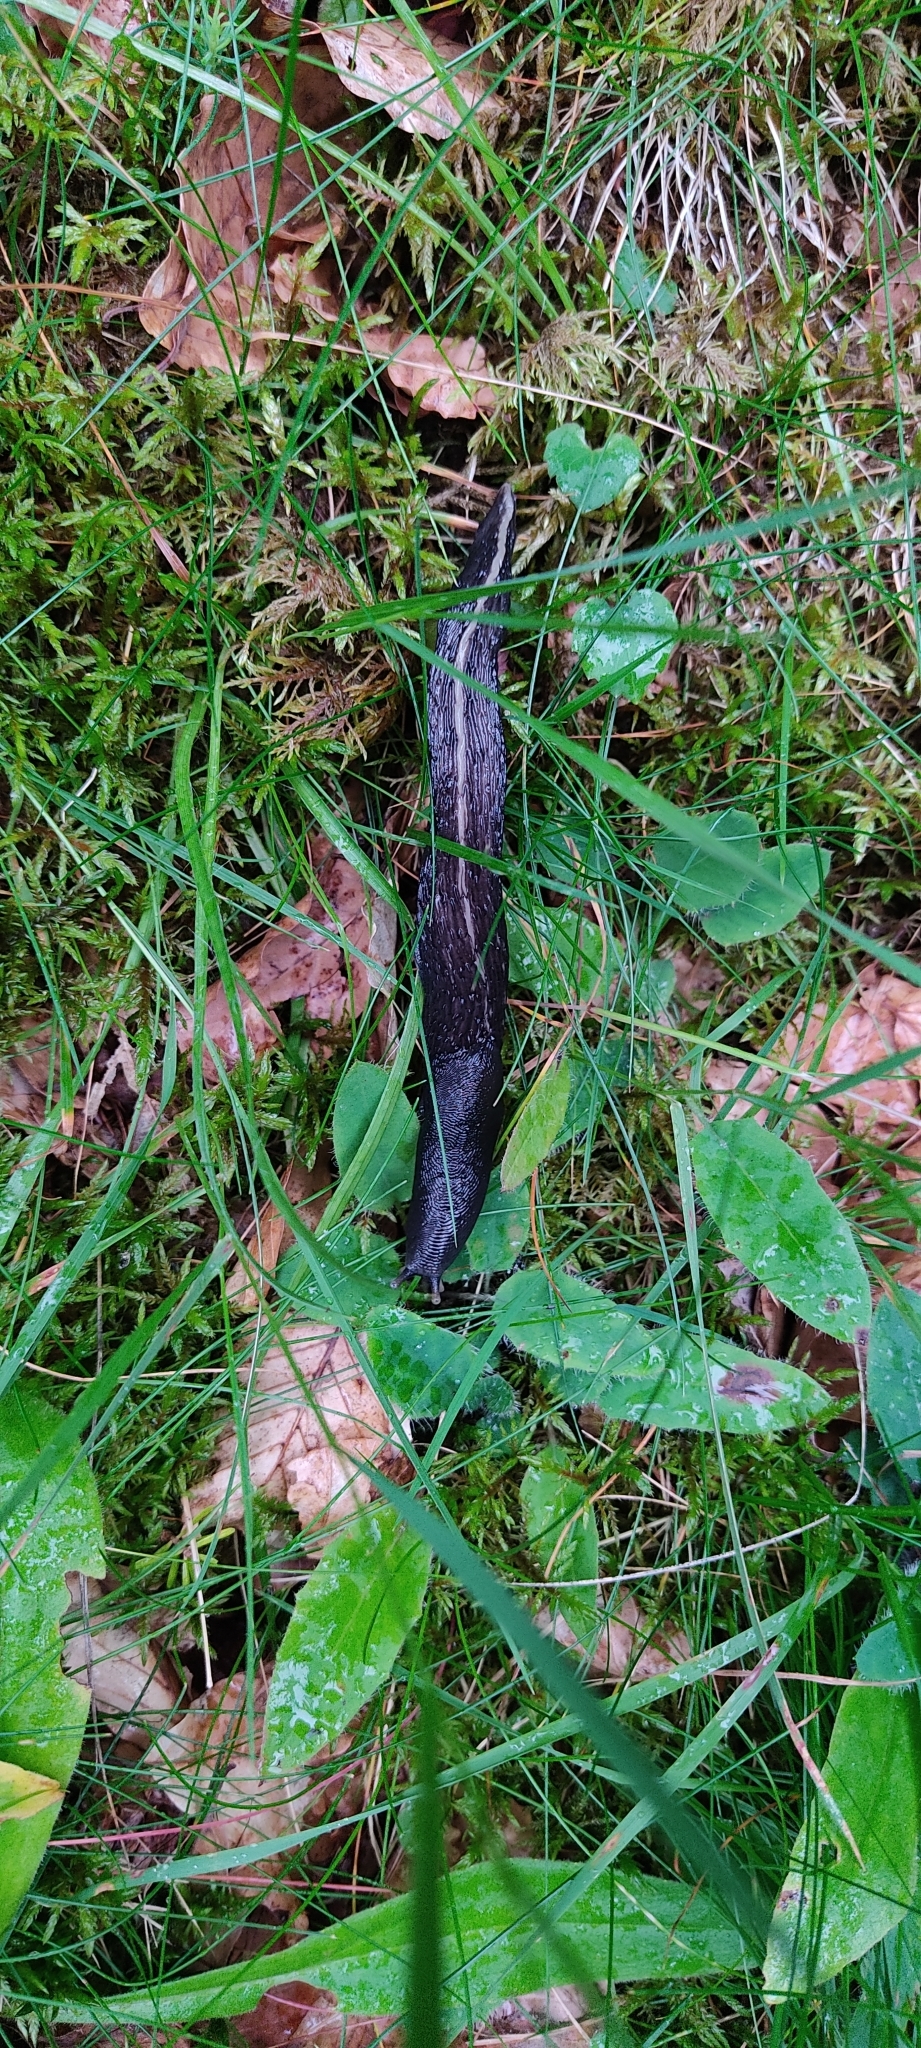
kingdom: Animalia
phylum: Mollusca
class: Gastropoda
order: Stylommatophora
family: Limacidae
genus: Limax
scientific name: Limax cinereoniger
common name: Ash-black slug
